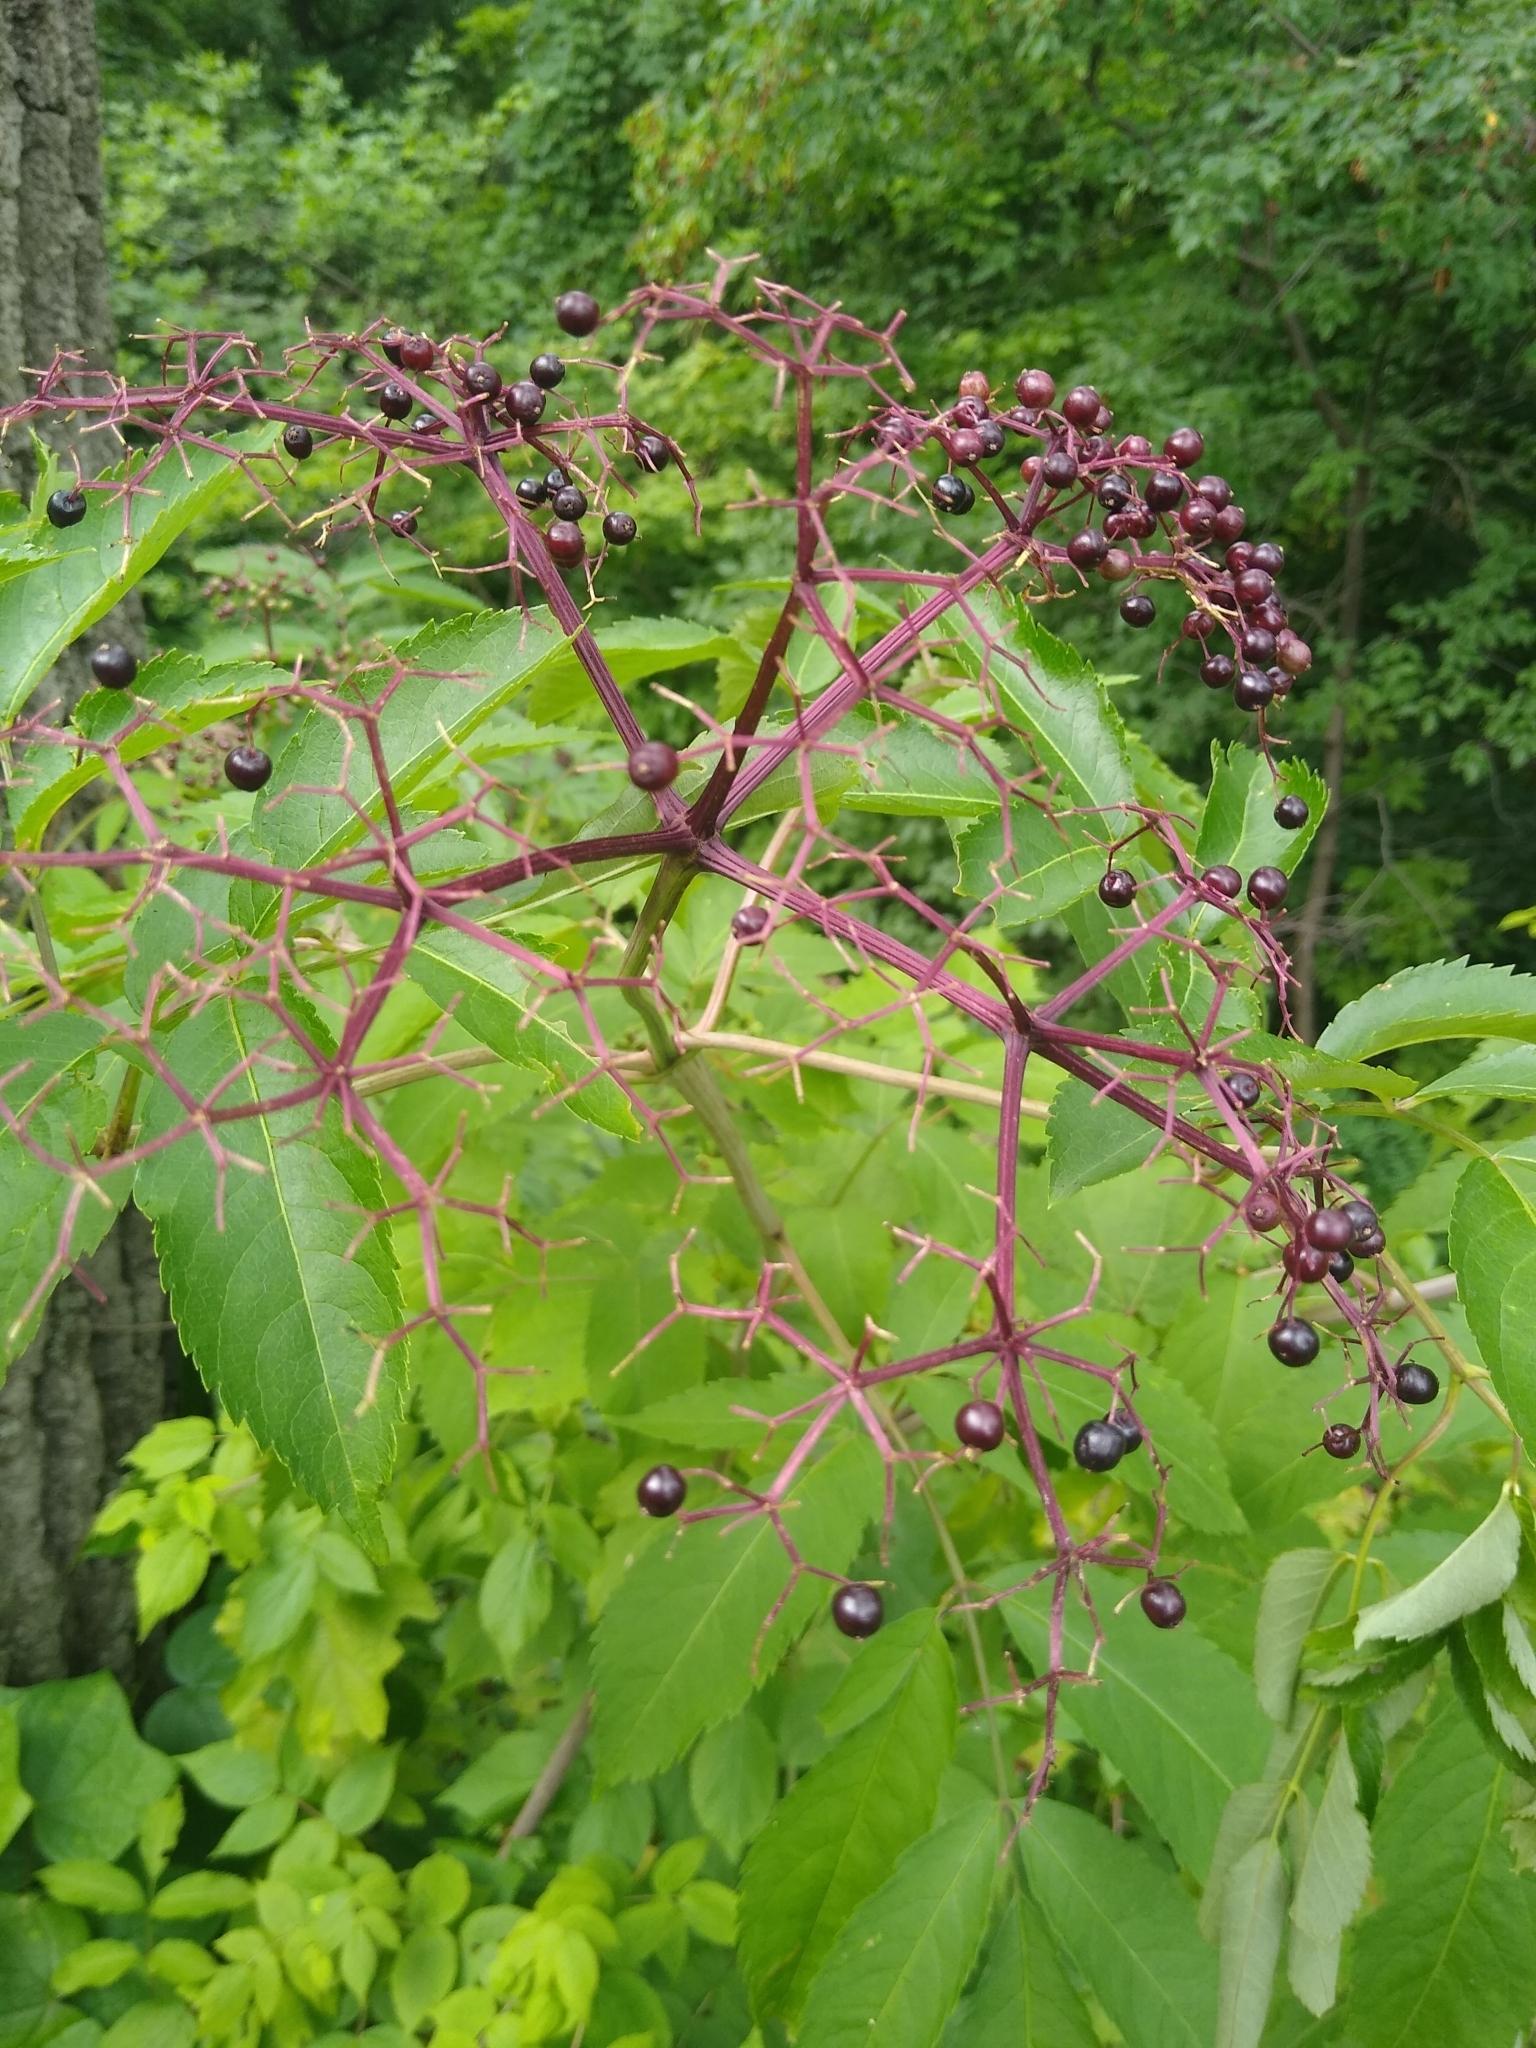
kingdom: Plantae
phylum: Tracheophyta
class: Magnoliopsida
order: Ranunculales
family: Ranunculaceae
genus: Actaea
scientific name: Actaea rubra
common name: Red baneberry
